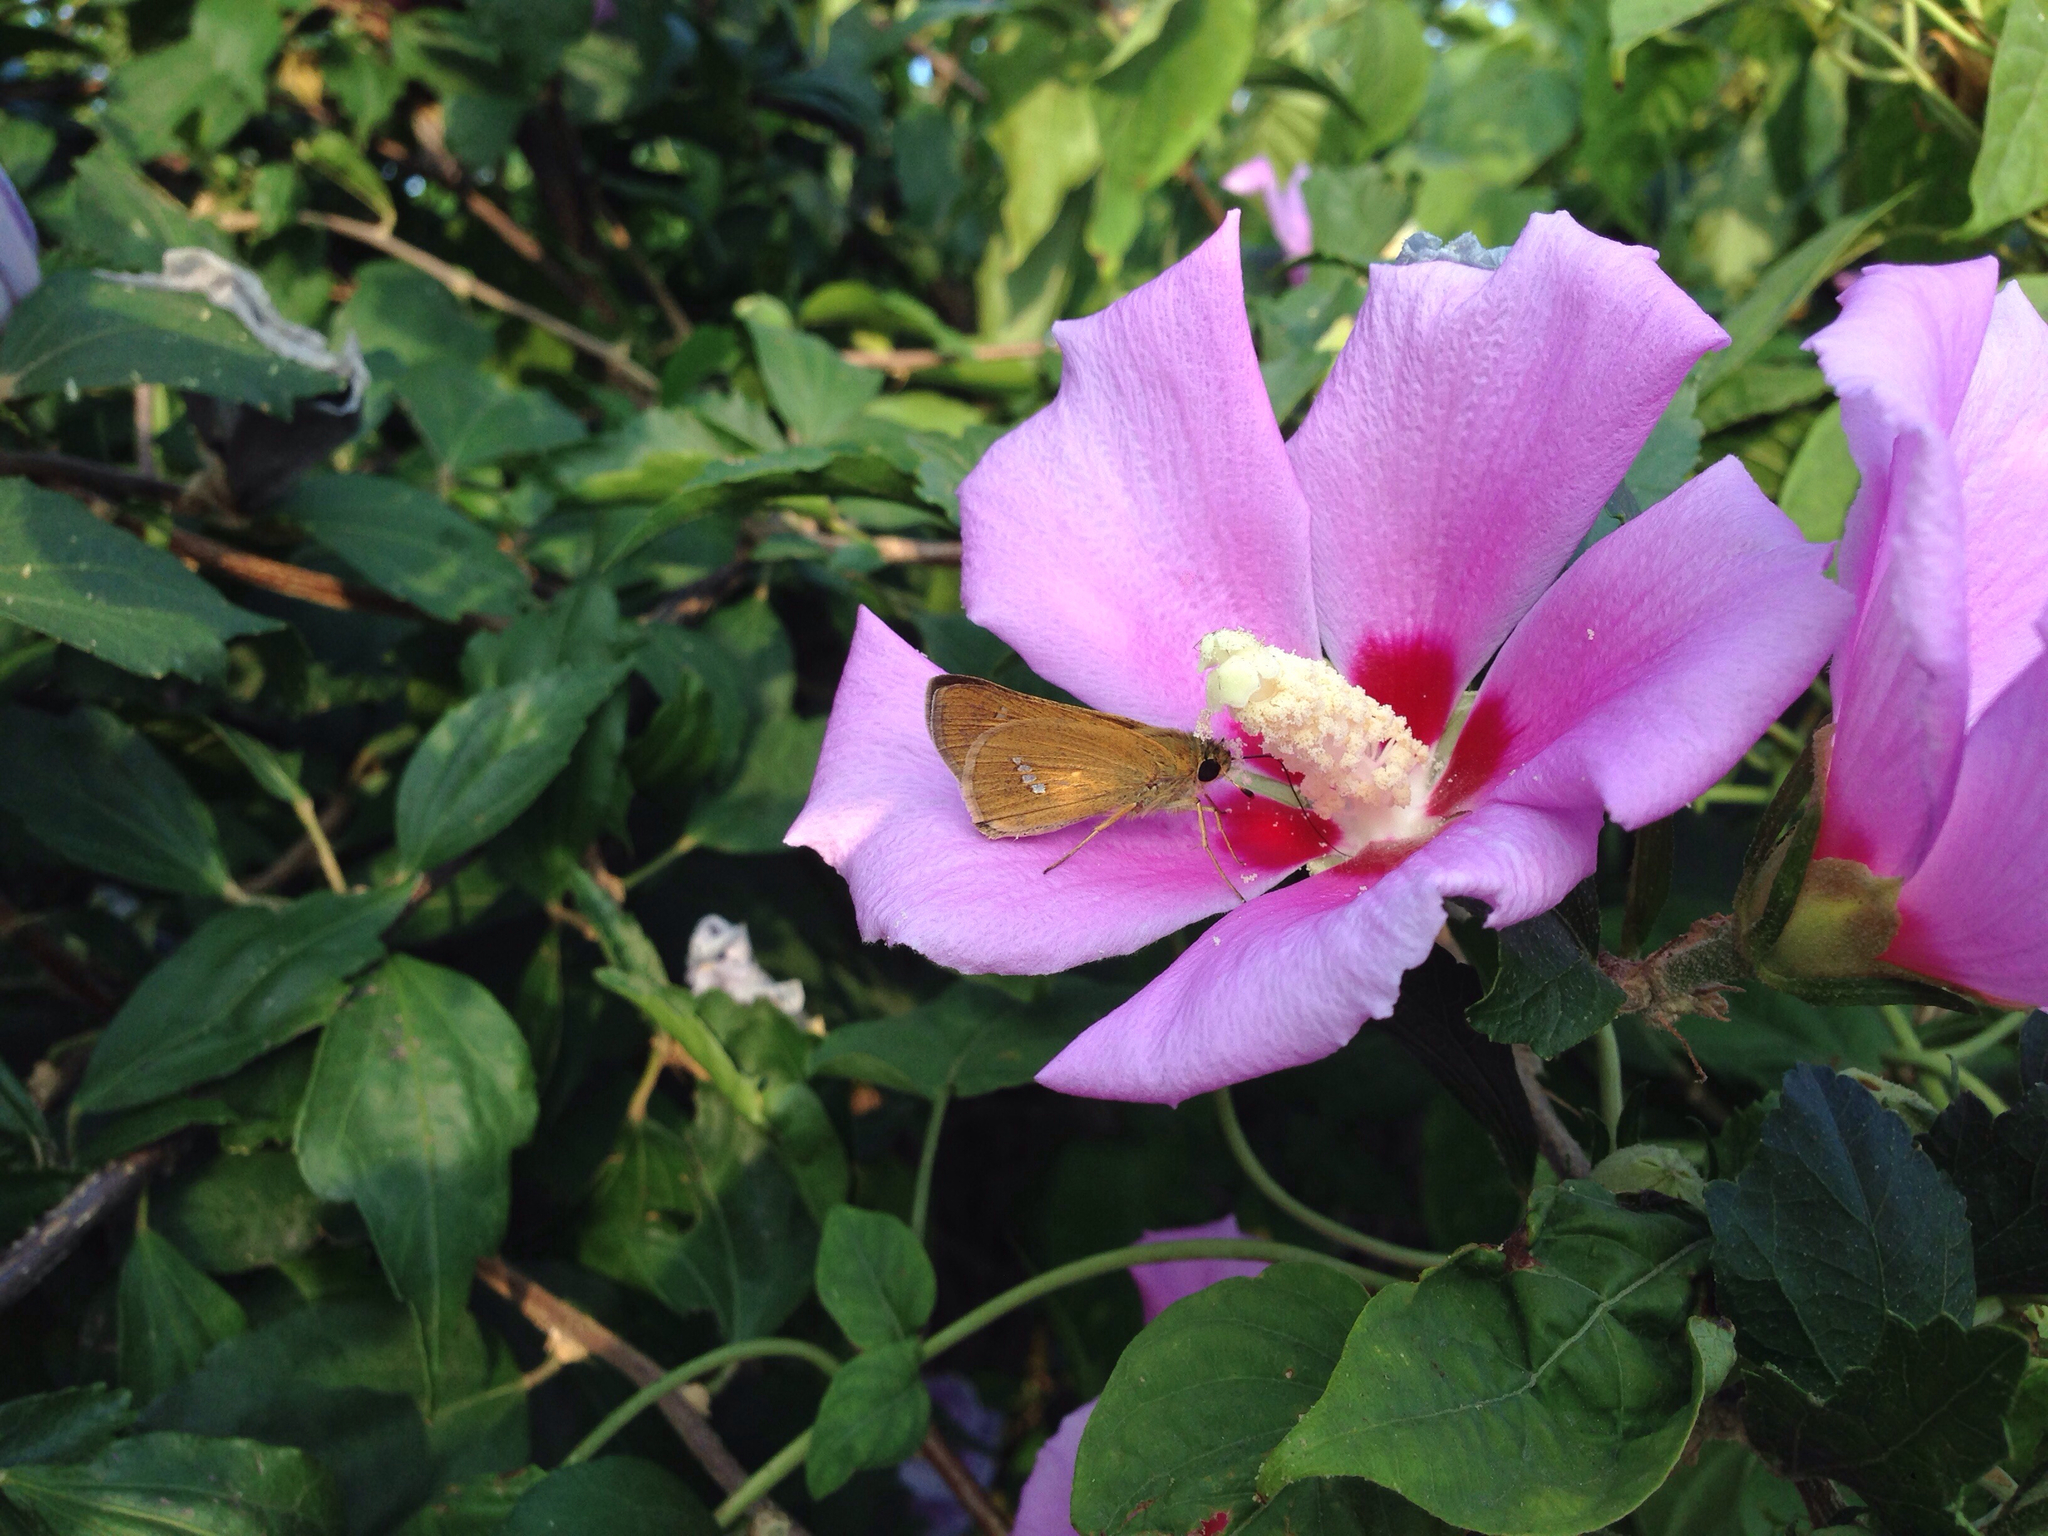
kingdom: Animalia
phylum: Arthropoda
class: Insecta
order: Lepidoptera
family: Hesperiidae
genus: Parnara
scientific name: Parnara guttatus
